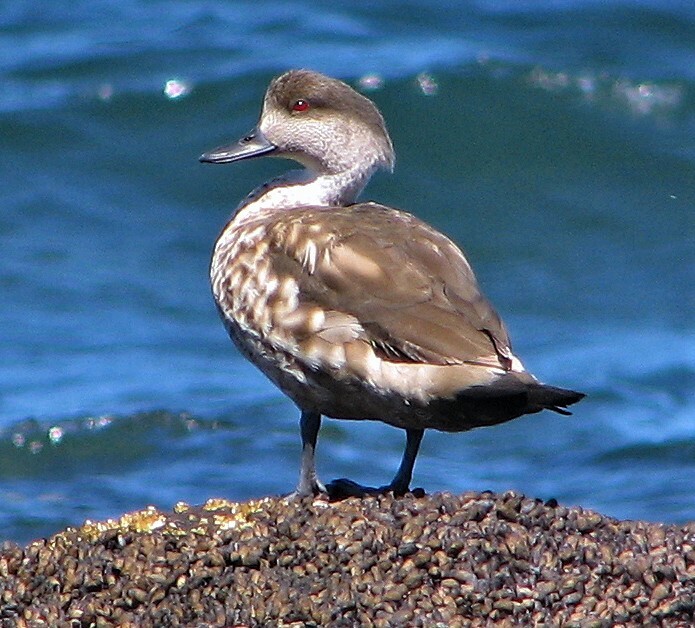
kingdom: Animalia
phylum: Chordata
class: Aves
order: Anseriformes
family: Anatidae
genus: Lophonetta
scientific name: Lophonetta specularioides
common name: Crested duck
